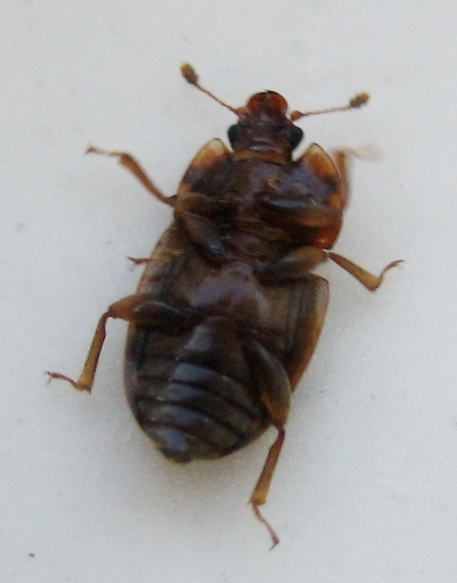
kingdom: Animalia
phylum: Arthropoda
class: Insecta
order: Coleoptera
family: Nitidulidae
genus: Soronia
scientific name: Soronia
